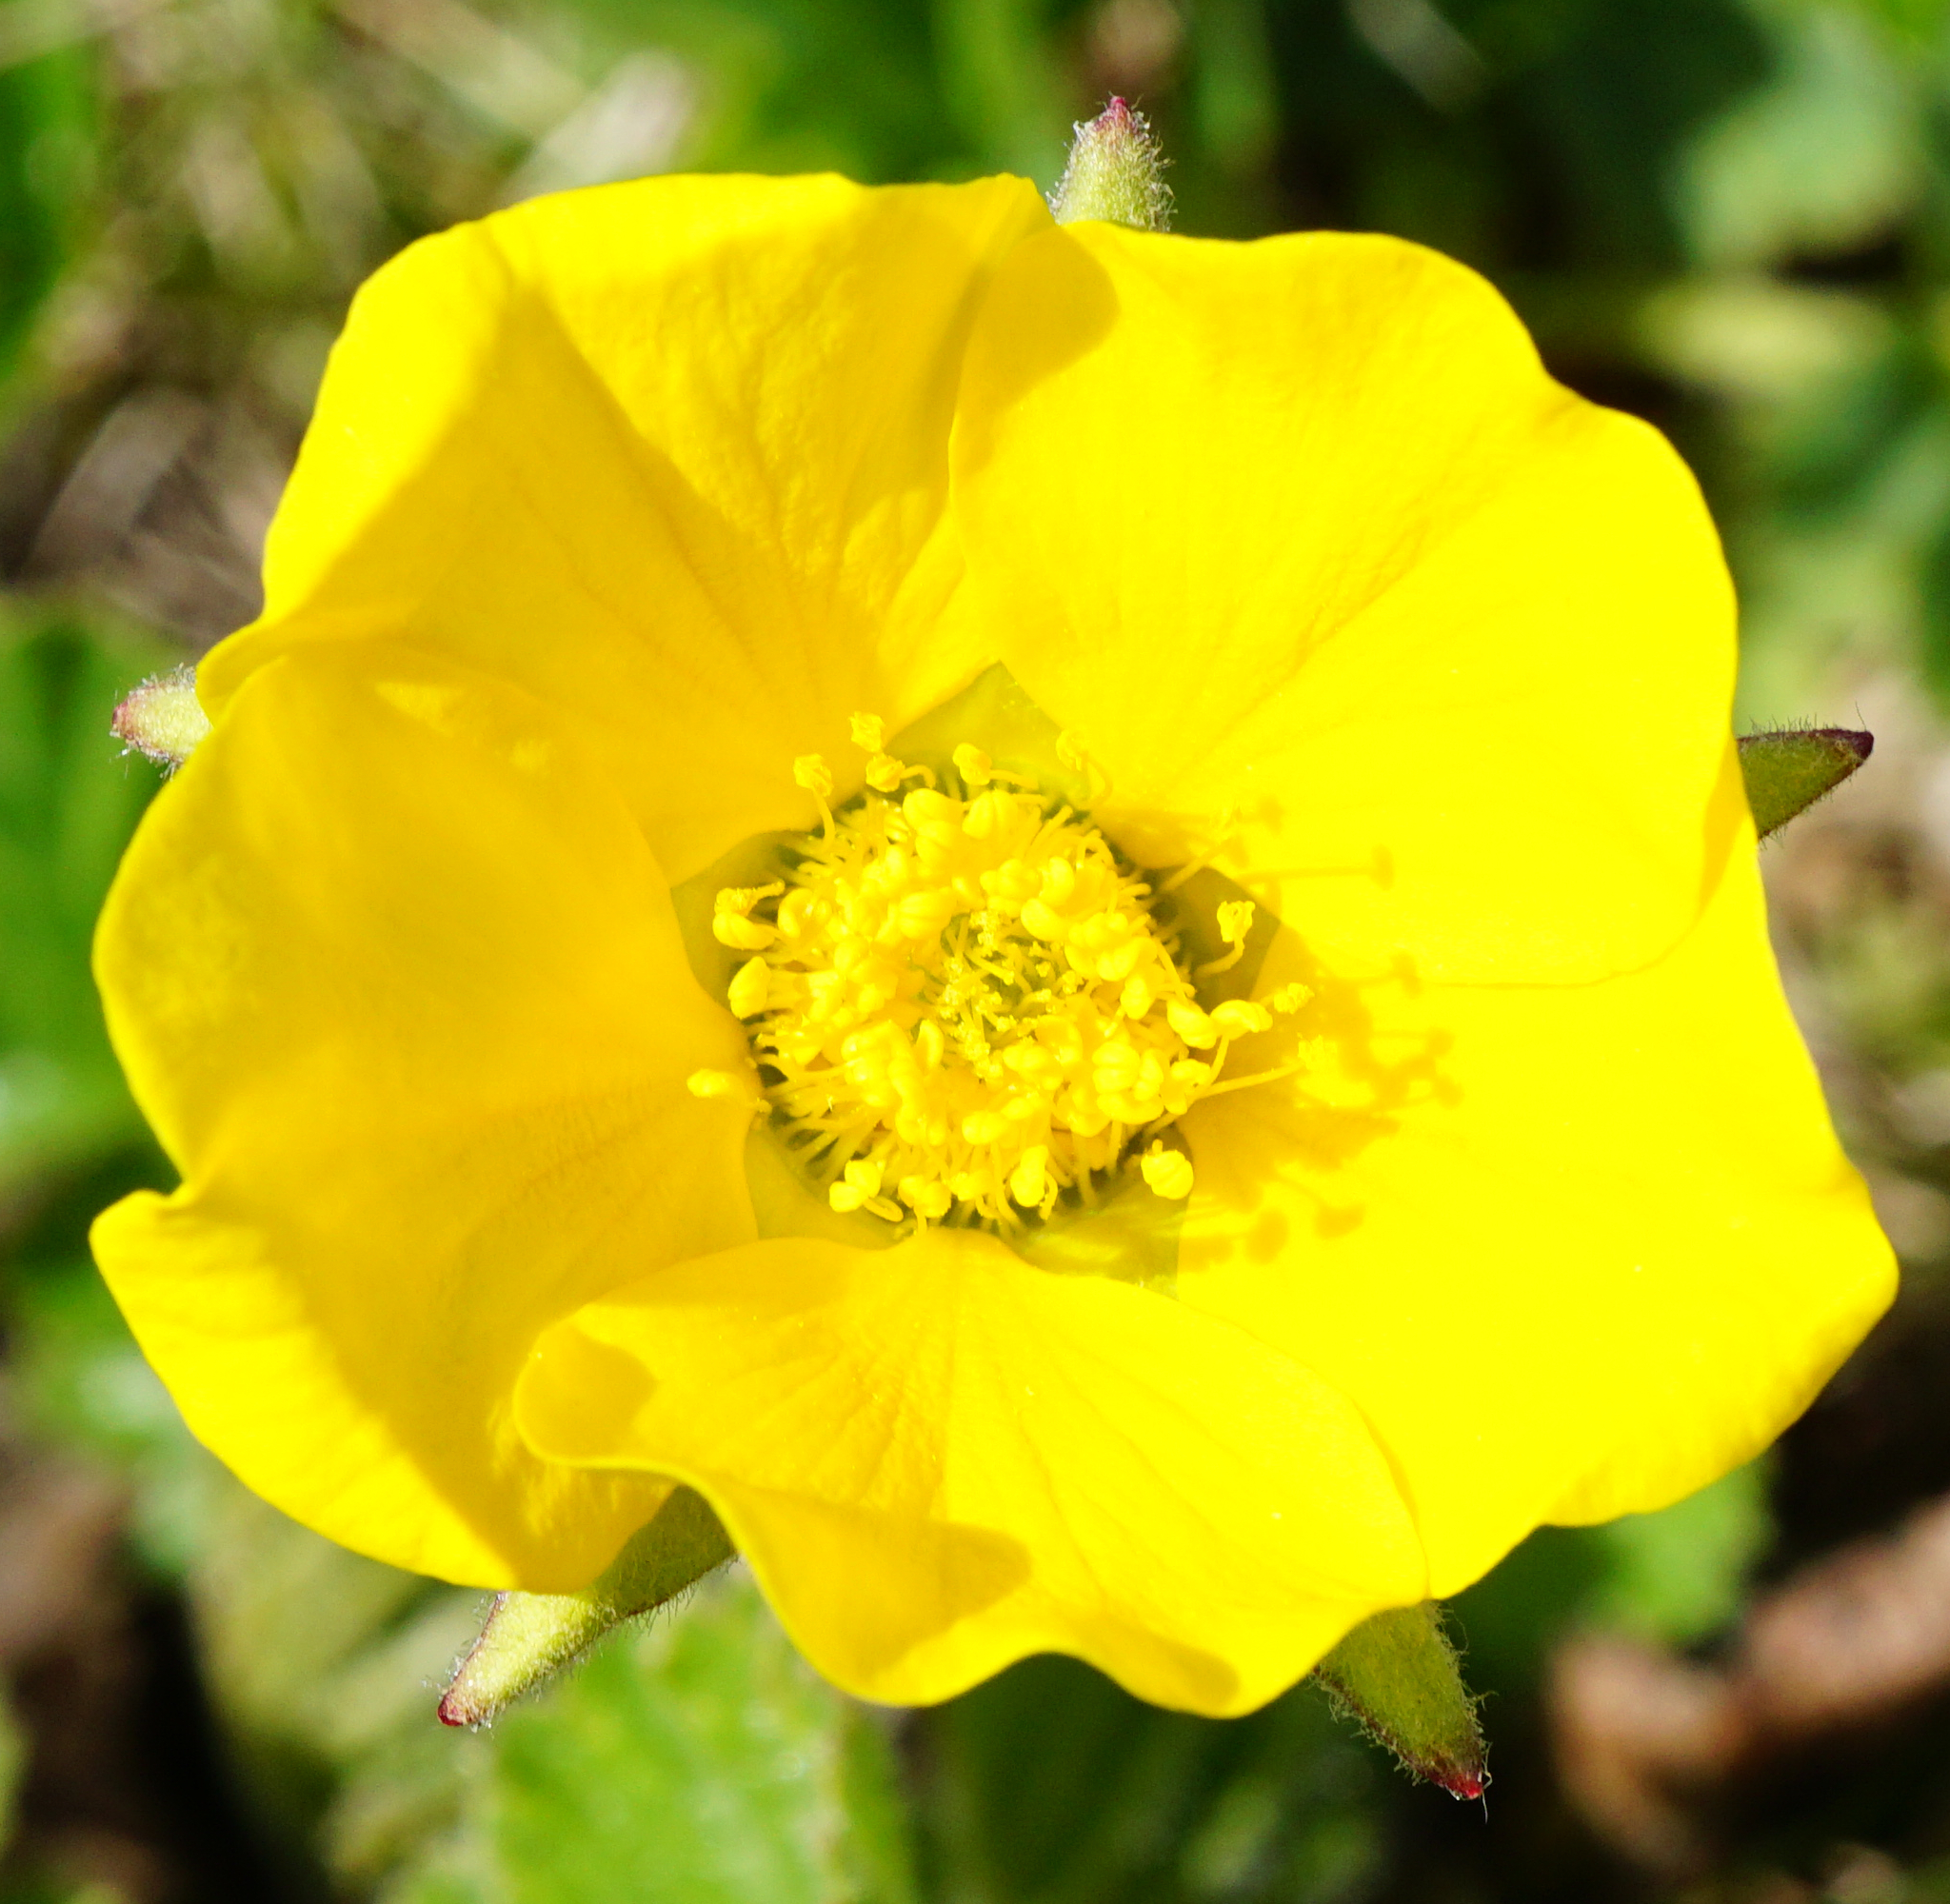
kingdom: Plantae
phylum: Tracheophyta
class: Magnoliopsida
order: Rosales
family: Rosaceae
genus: Geum
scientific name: Geum montanum
